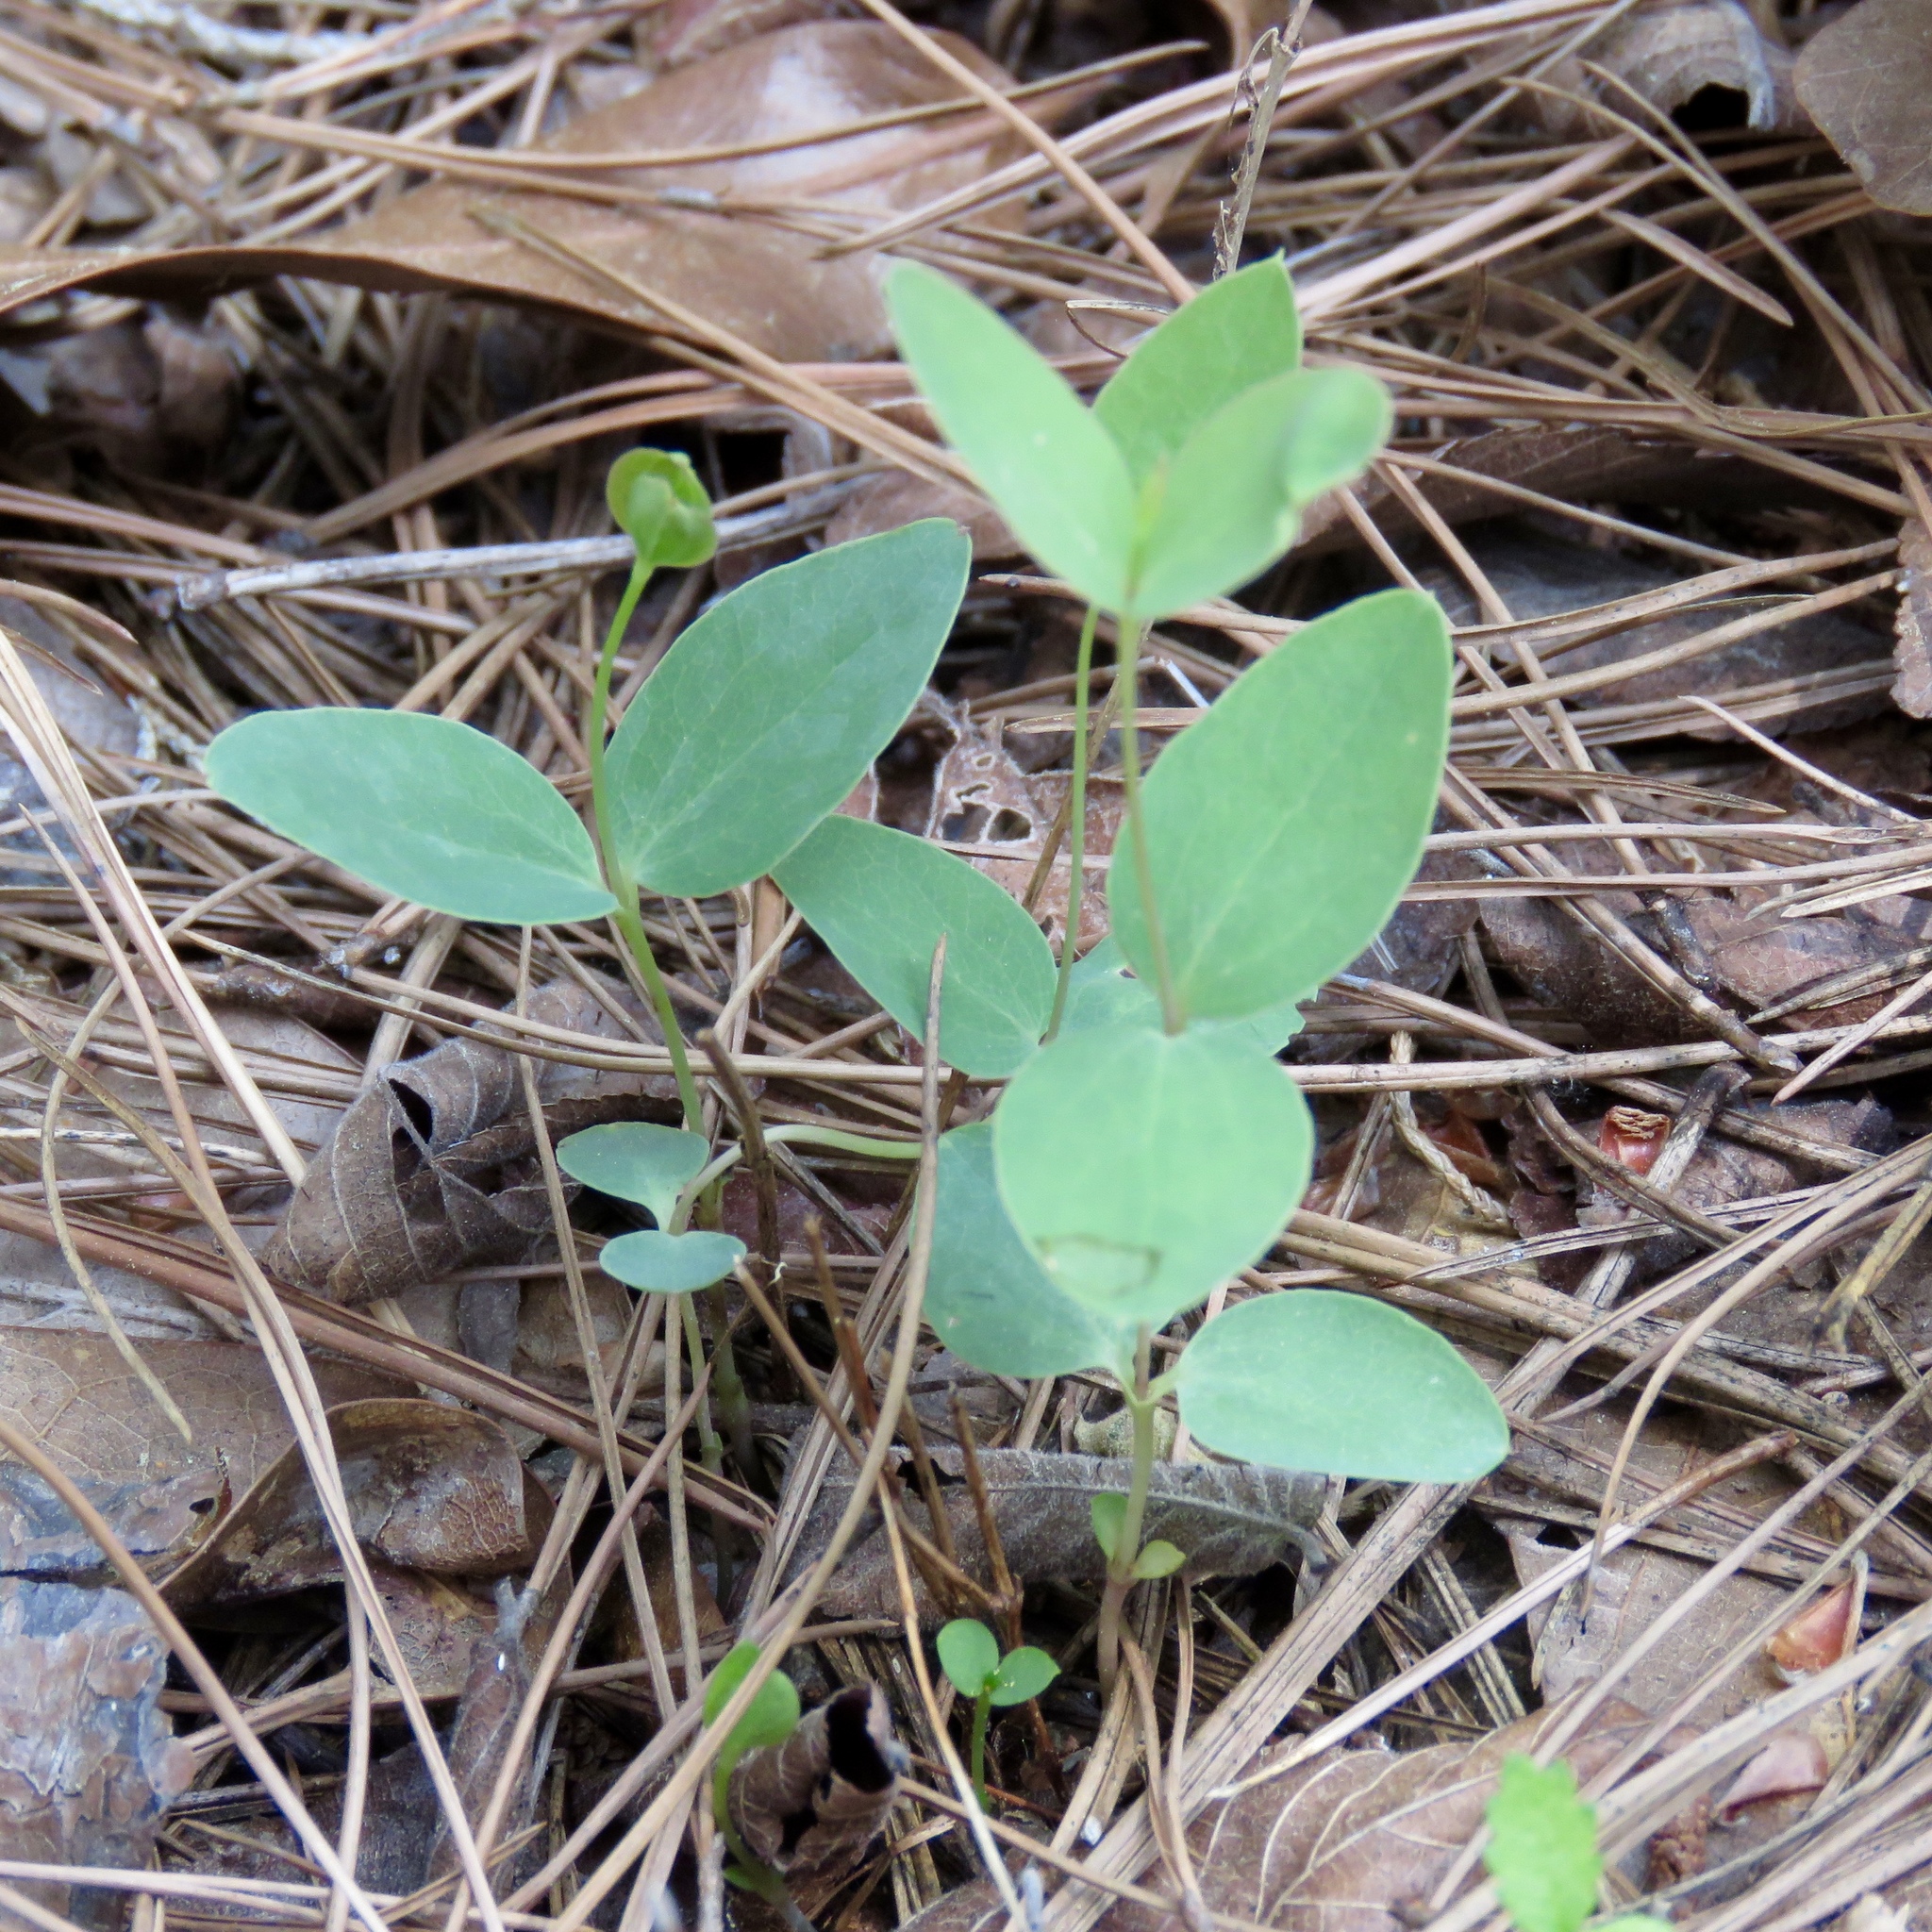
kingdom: Plantae
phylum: Tracheophyta
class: Magnoliopsida
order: Ranunculales
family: Ranunculaceae
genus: Clematis
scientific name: Clematis carrizoensis
